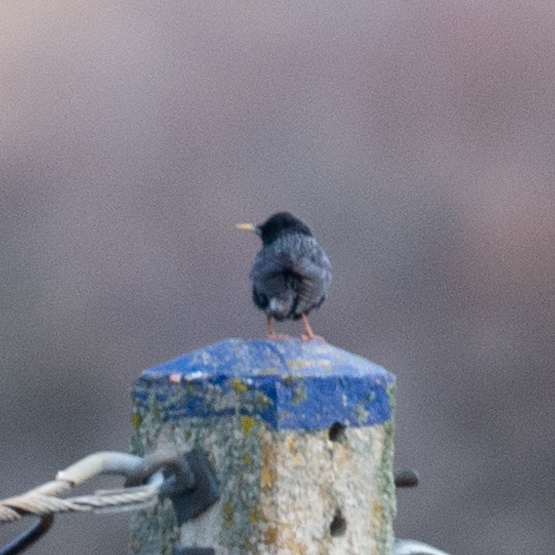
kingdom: Animalia
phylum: Chordata
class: Aves
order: Passeriformes
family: Sturnidae
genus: Sturnus
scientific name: Sturnus vulgaris
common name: Common starling
